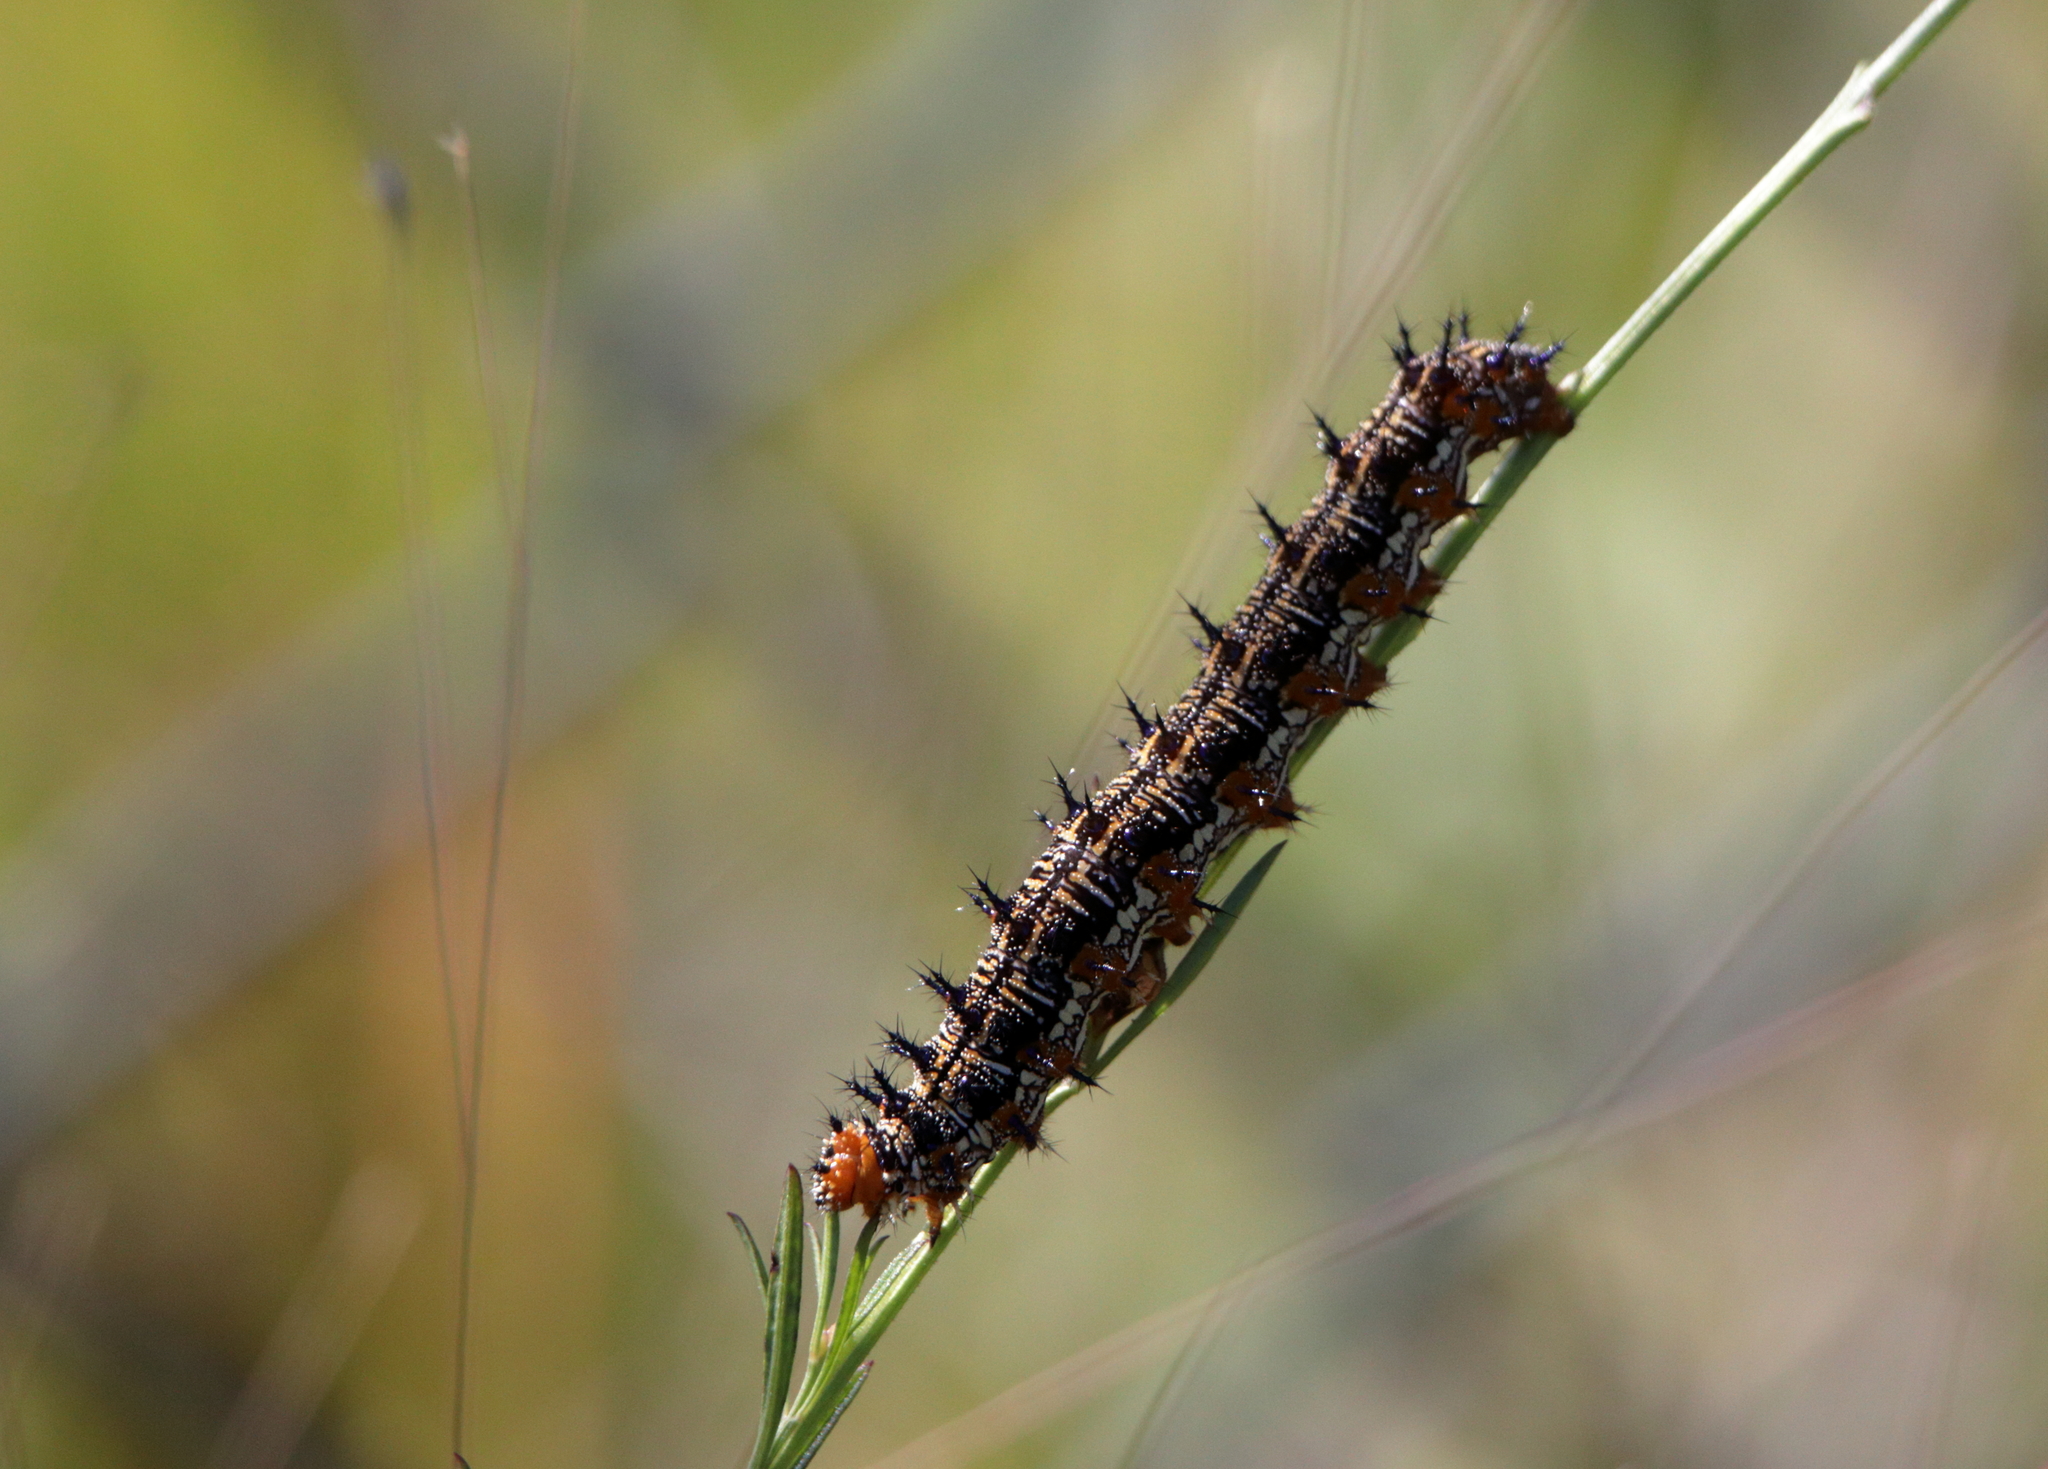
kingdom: Animalia
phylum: Arthropoda
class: Insecta
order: Lepidoptera
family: Nymphalidae
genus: Junonia
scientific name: Junonia coenia
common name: Common buckeye
